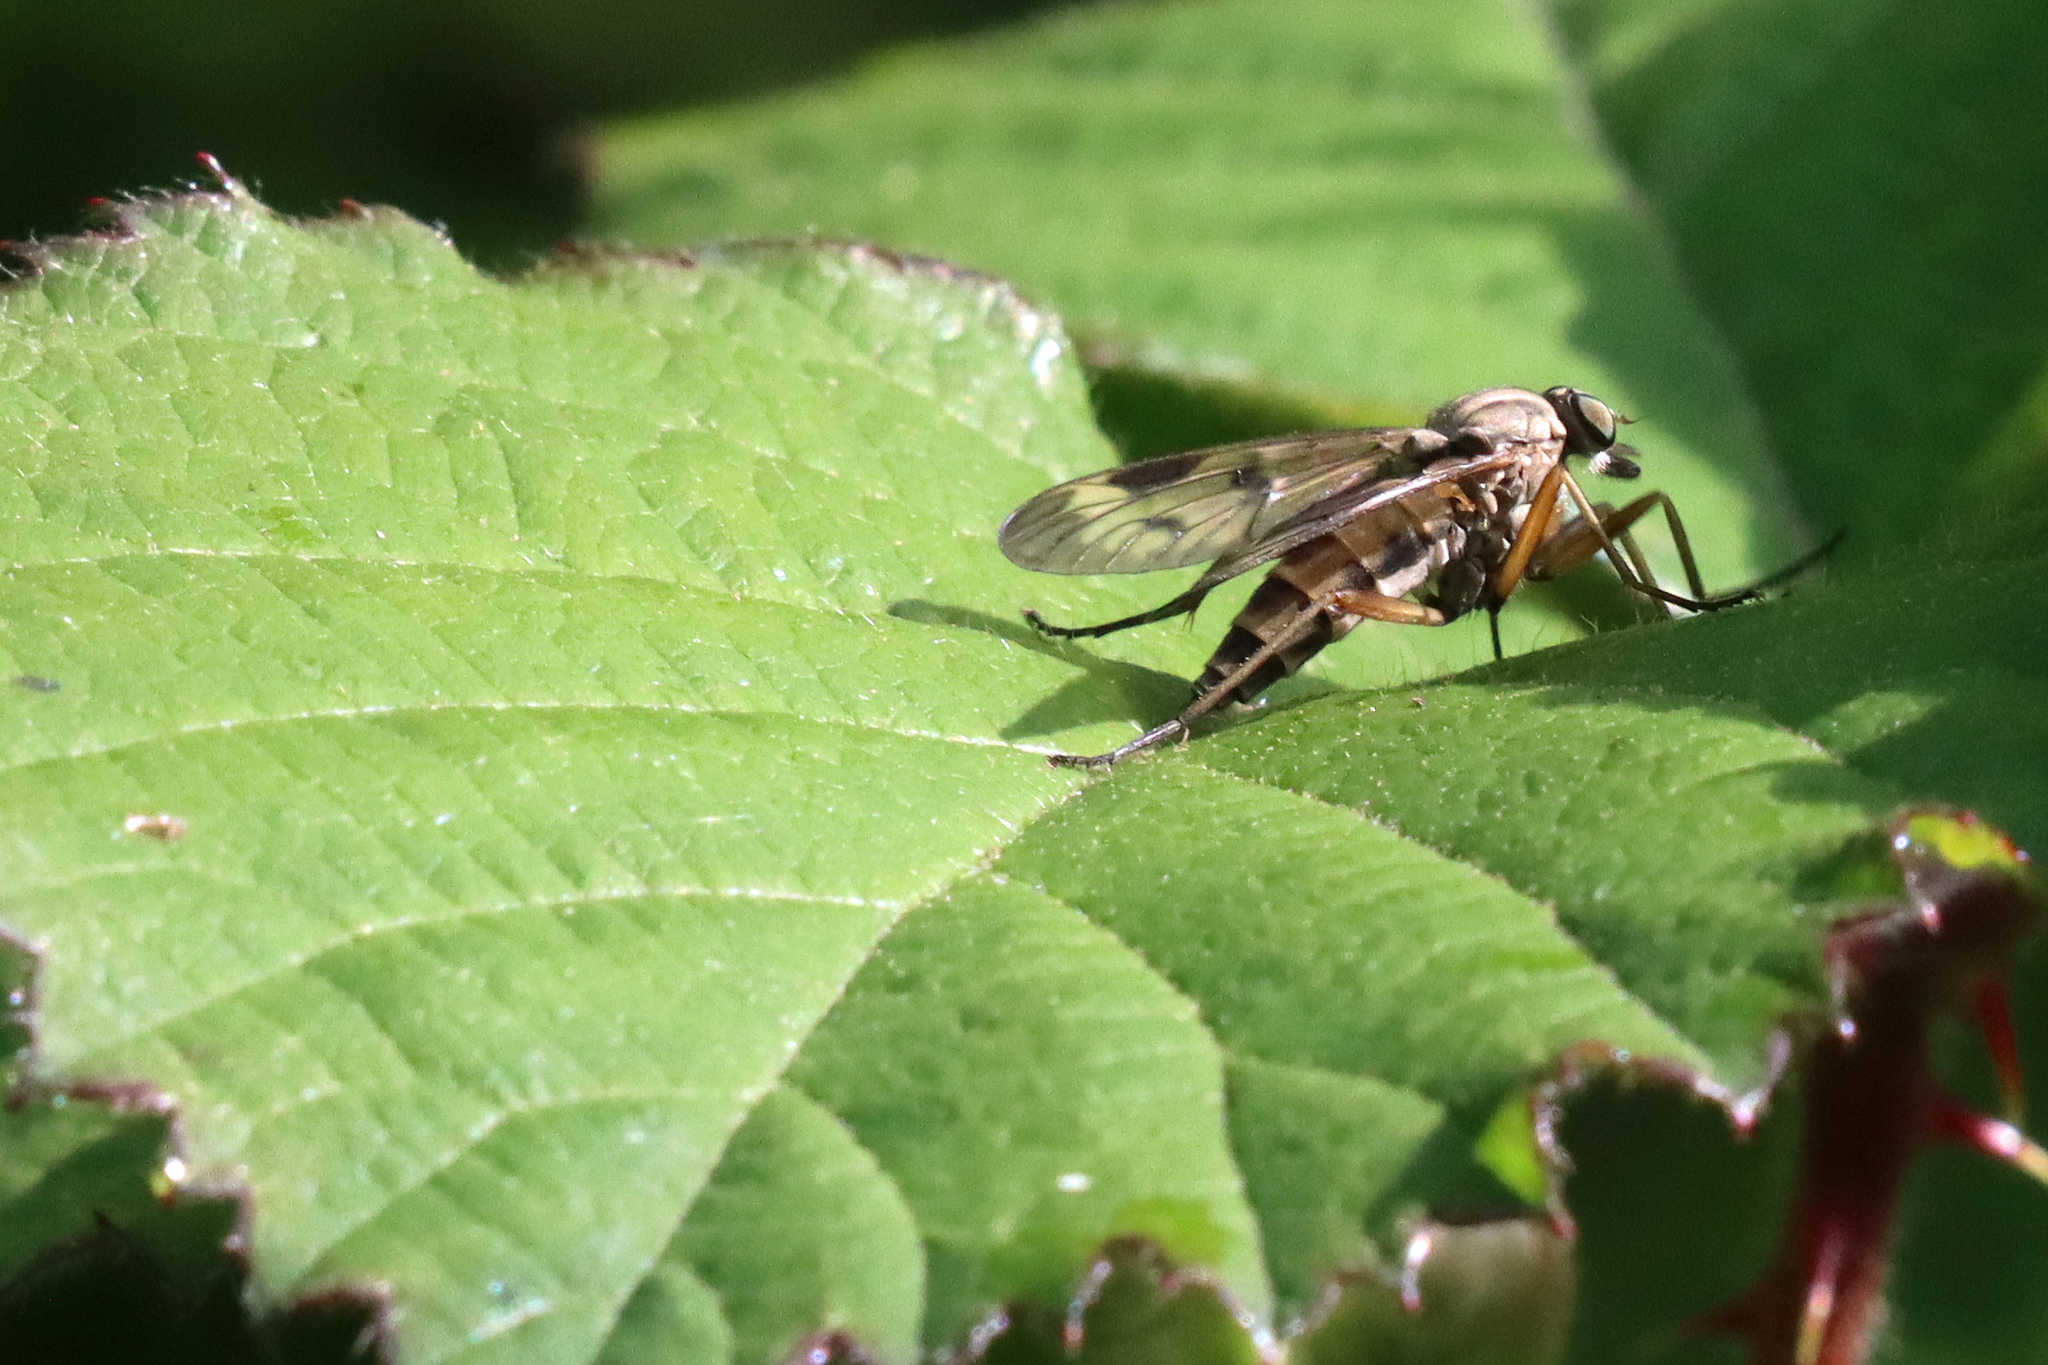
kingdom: Animalia
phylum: Arthropoda
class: Insecta
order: Diptera
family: Rhagionidae
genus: Rhagio
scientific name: Rhagio scolopacea
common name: Downlooker snipefly
